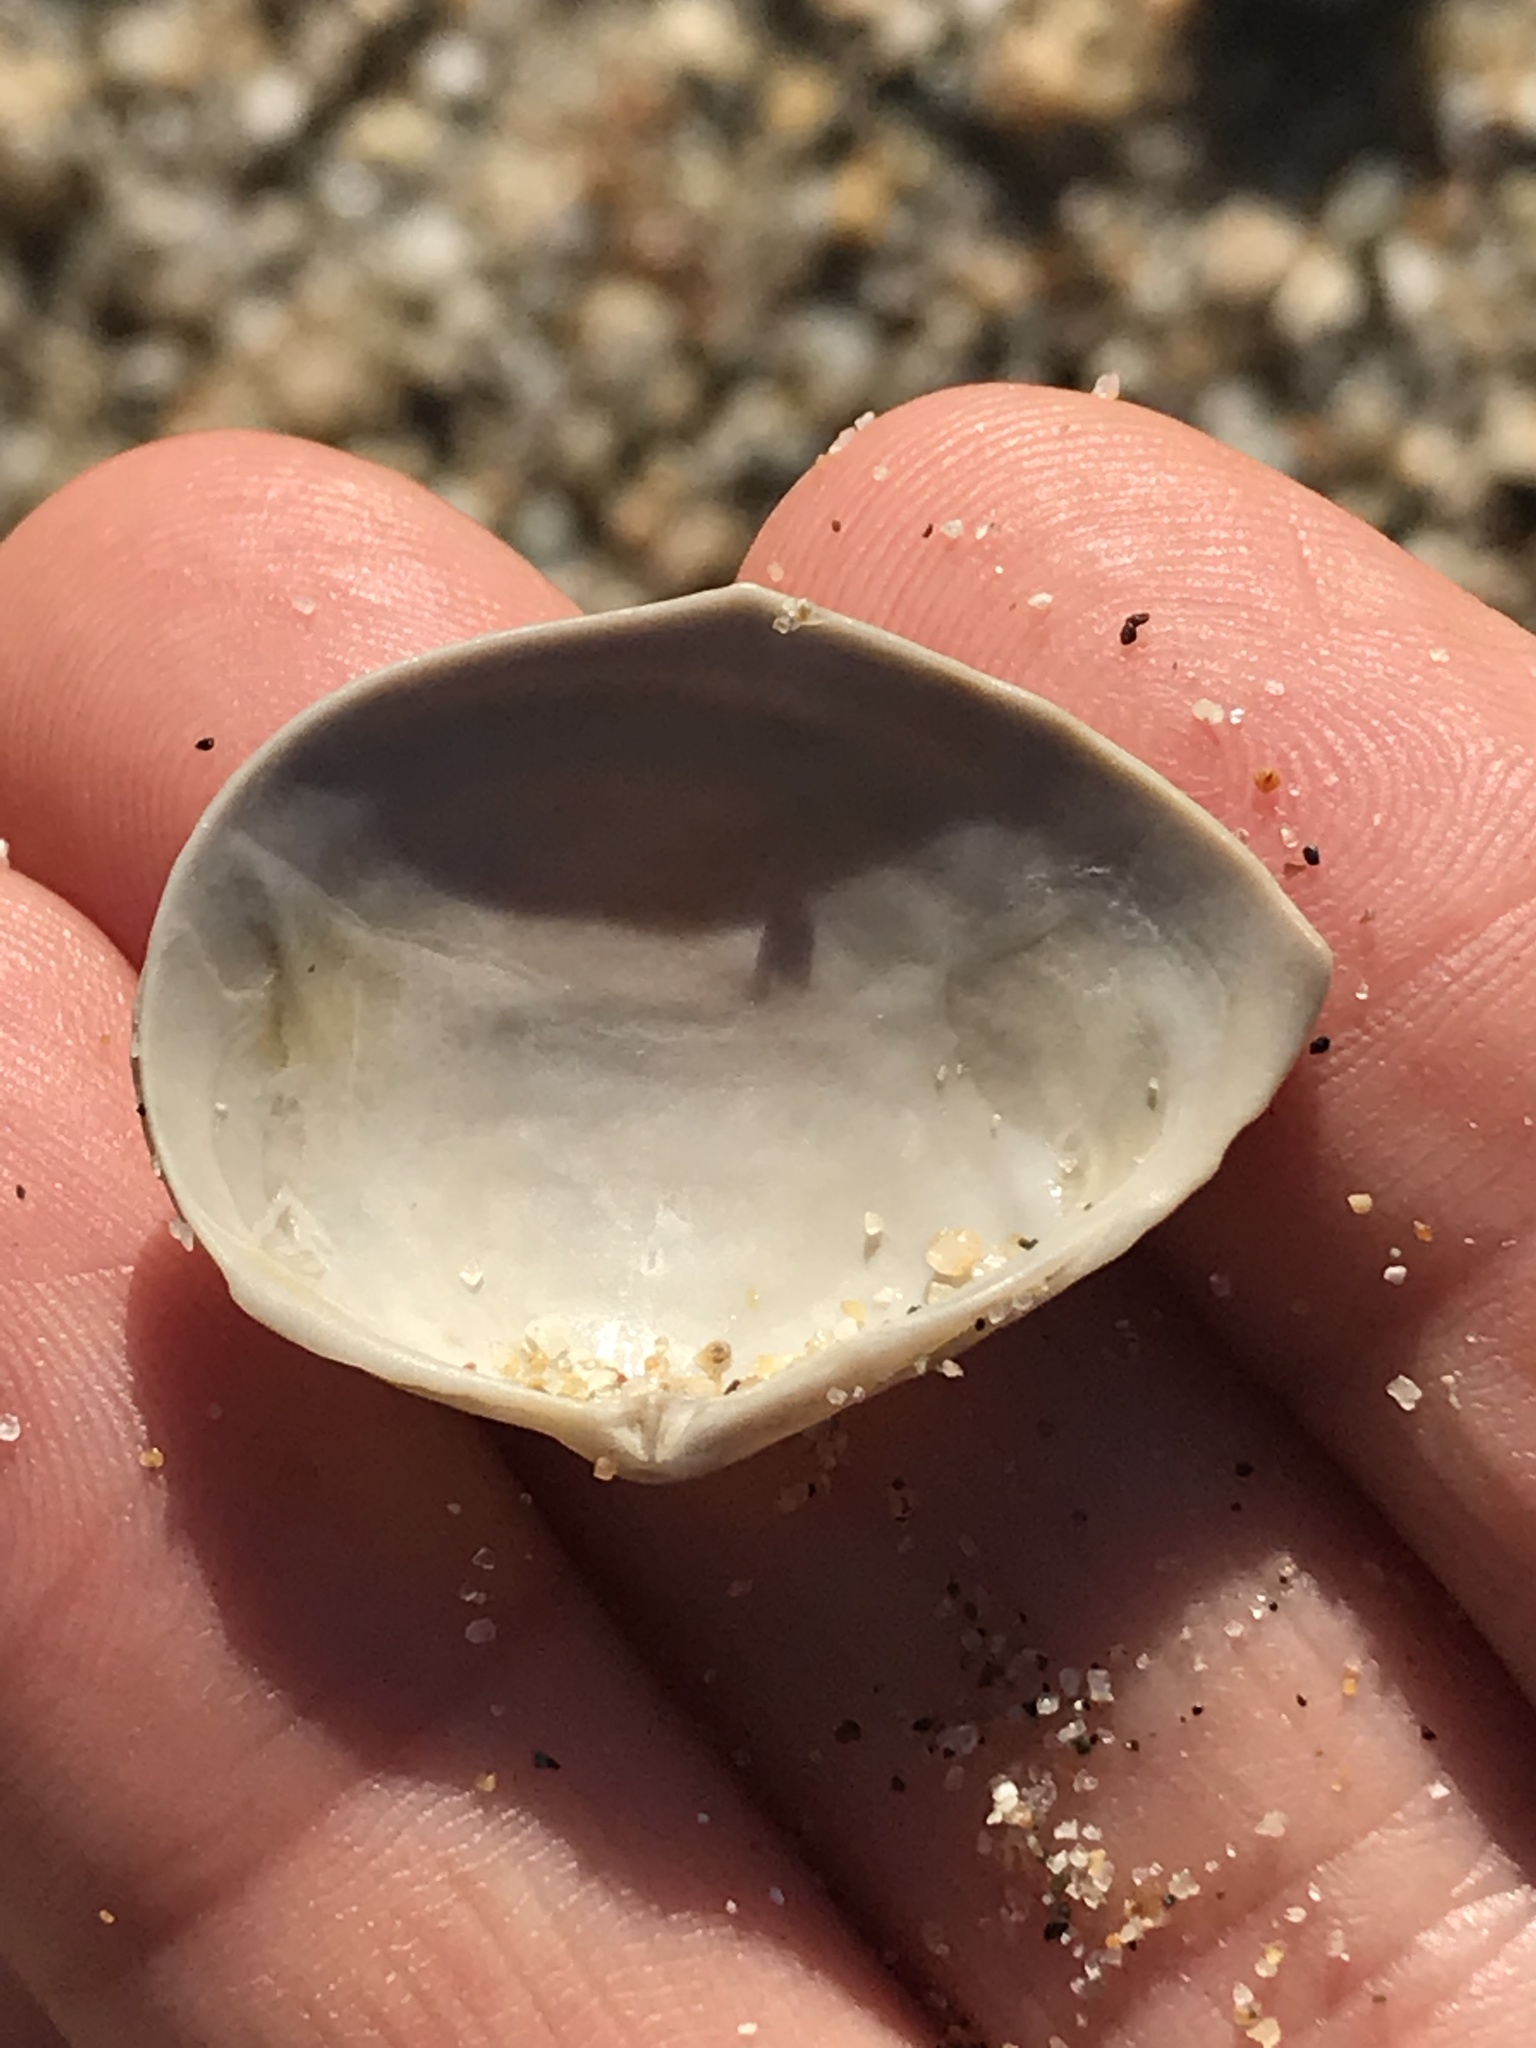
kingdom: Animalia
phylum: Mollusca
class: Bivalvia
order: Cardiida
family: Tellinidae
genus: Macoma
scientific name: Macoma nasuta
